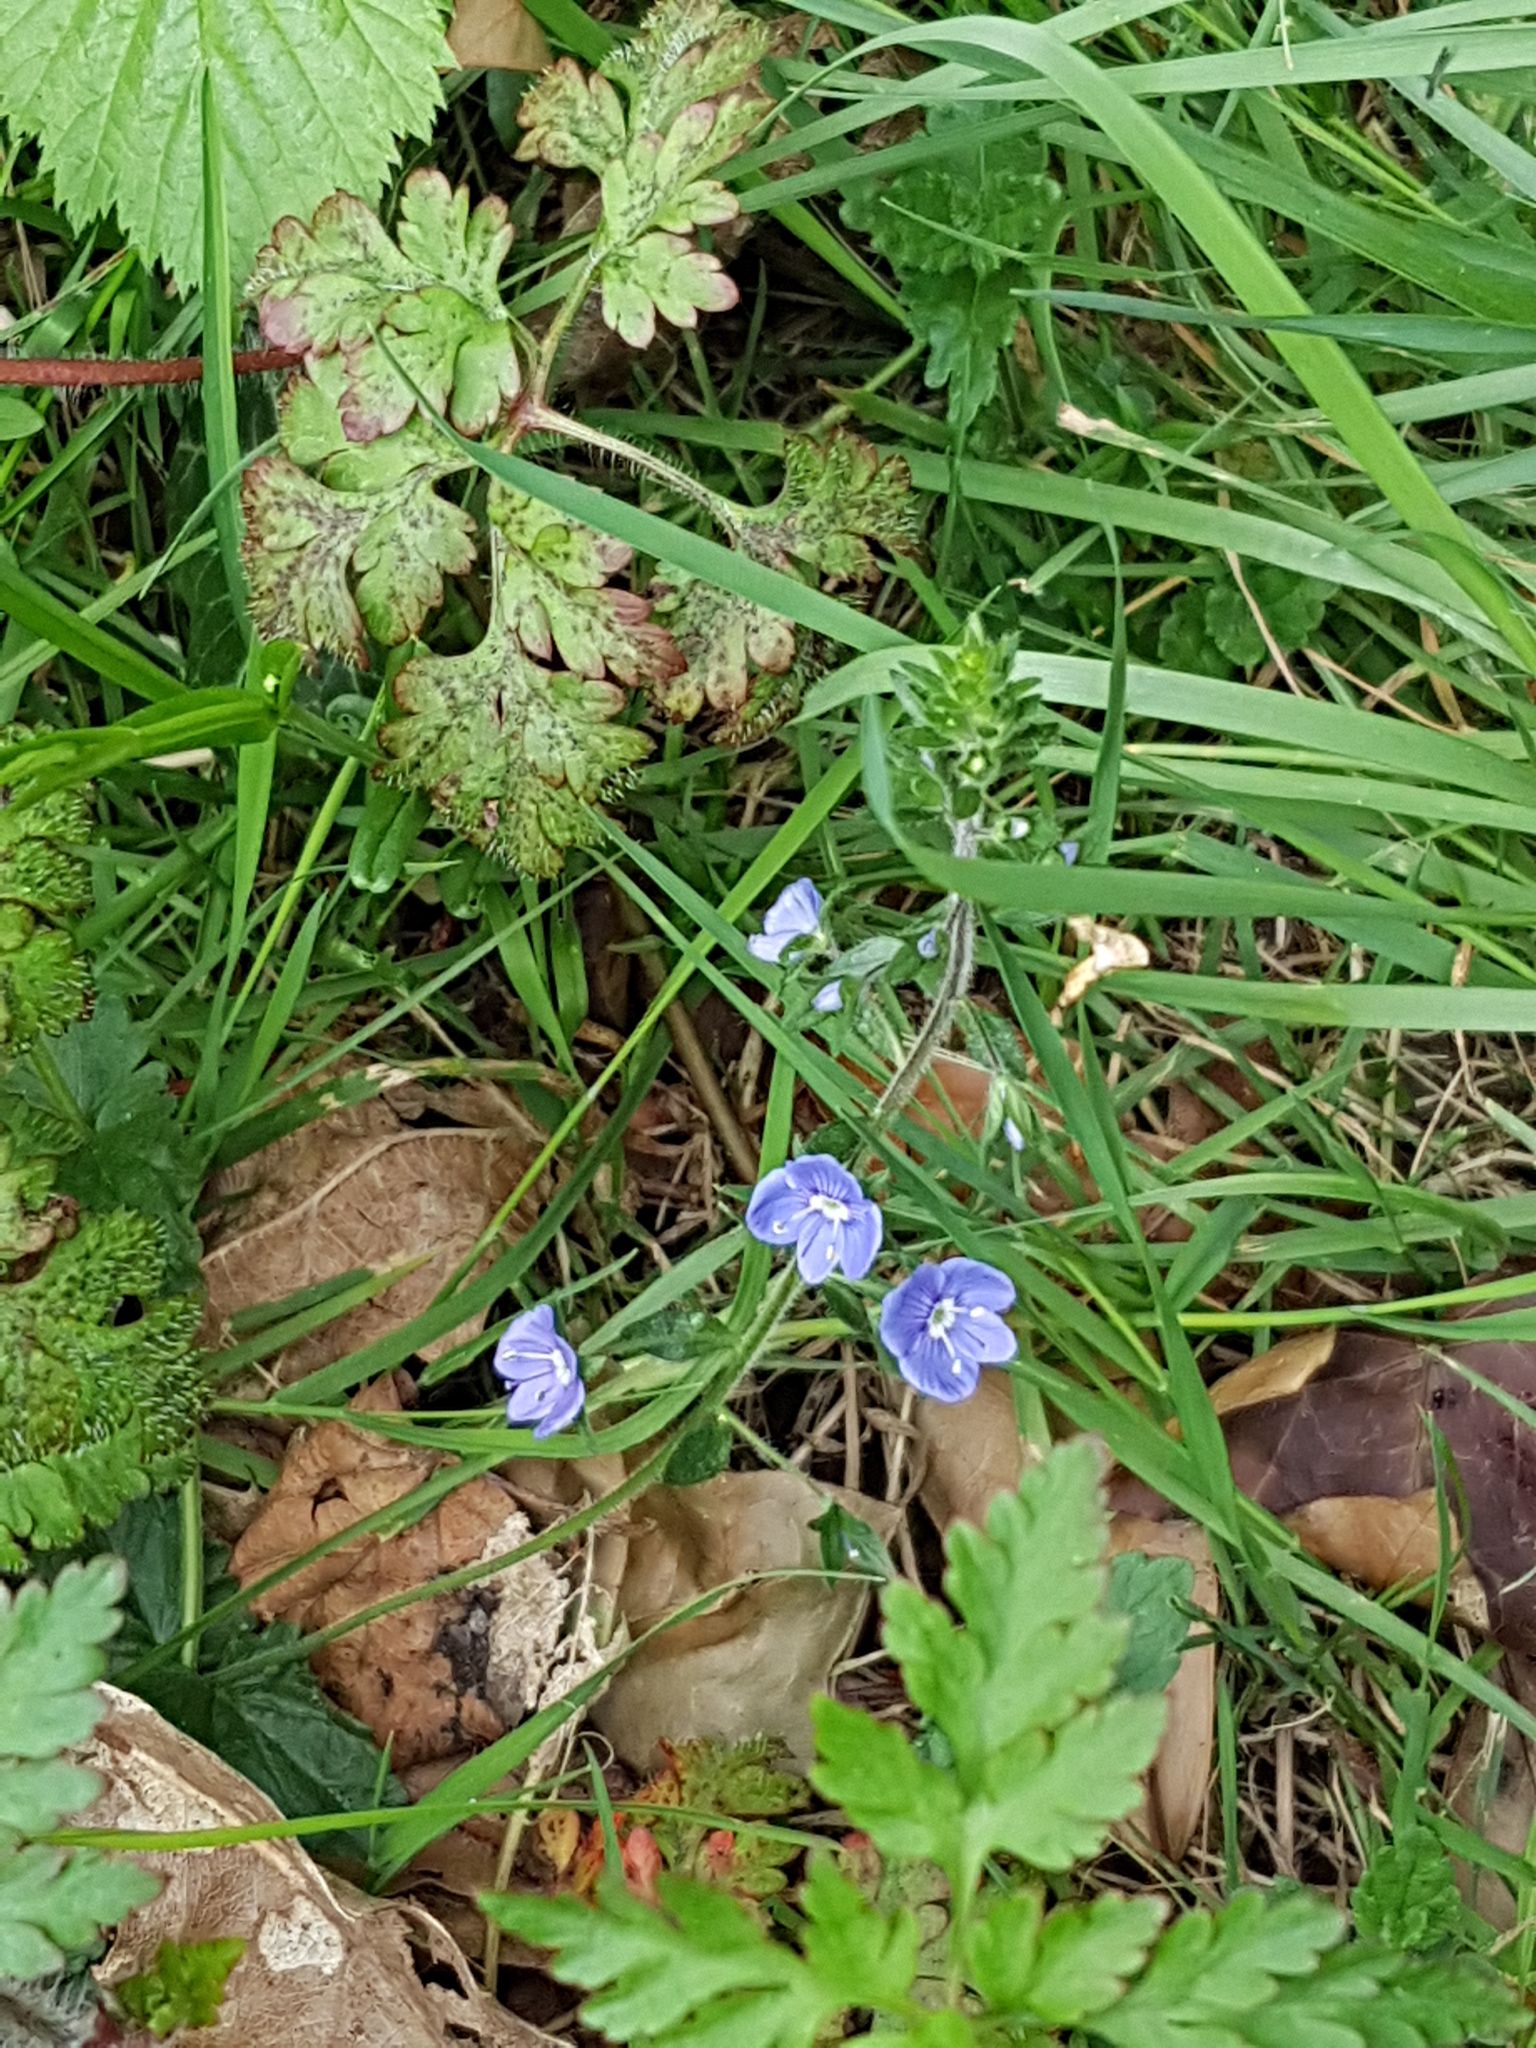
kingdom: Plantae
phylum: Tracheophyta
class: Magnoliopsida
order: Lamiales
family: Plantaginaceae
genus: Veronica
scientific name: Veronica chamaedrys
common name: Germander speedwell
